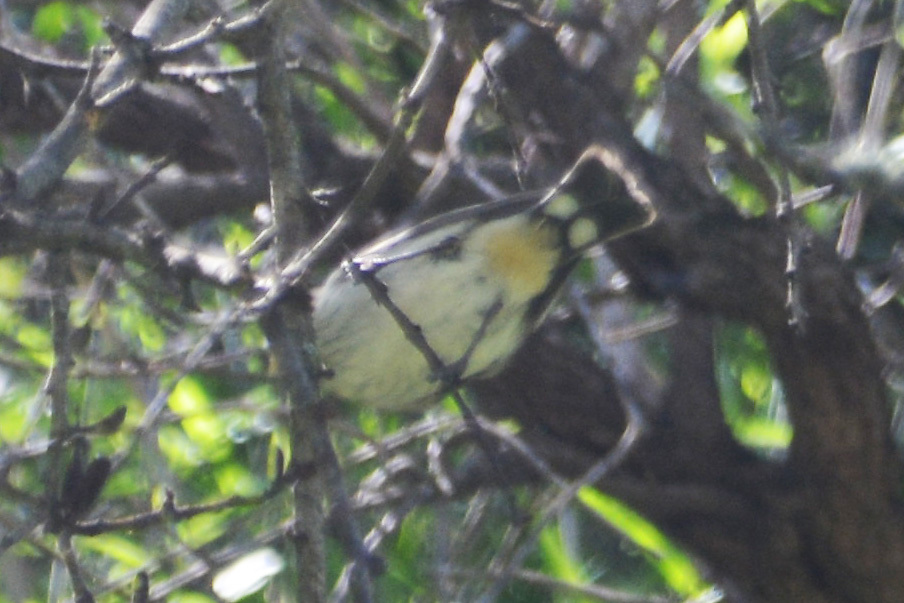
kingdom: Animalia
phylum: Chordata
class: Aves
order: Passeriformes
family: Thraupidae
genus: Catamenia
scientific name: Catamenia analis
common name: Band-tailed seedeater
